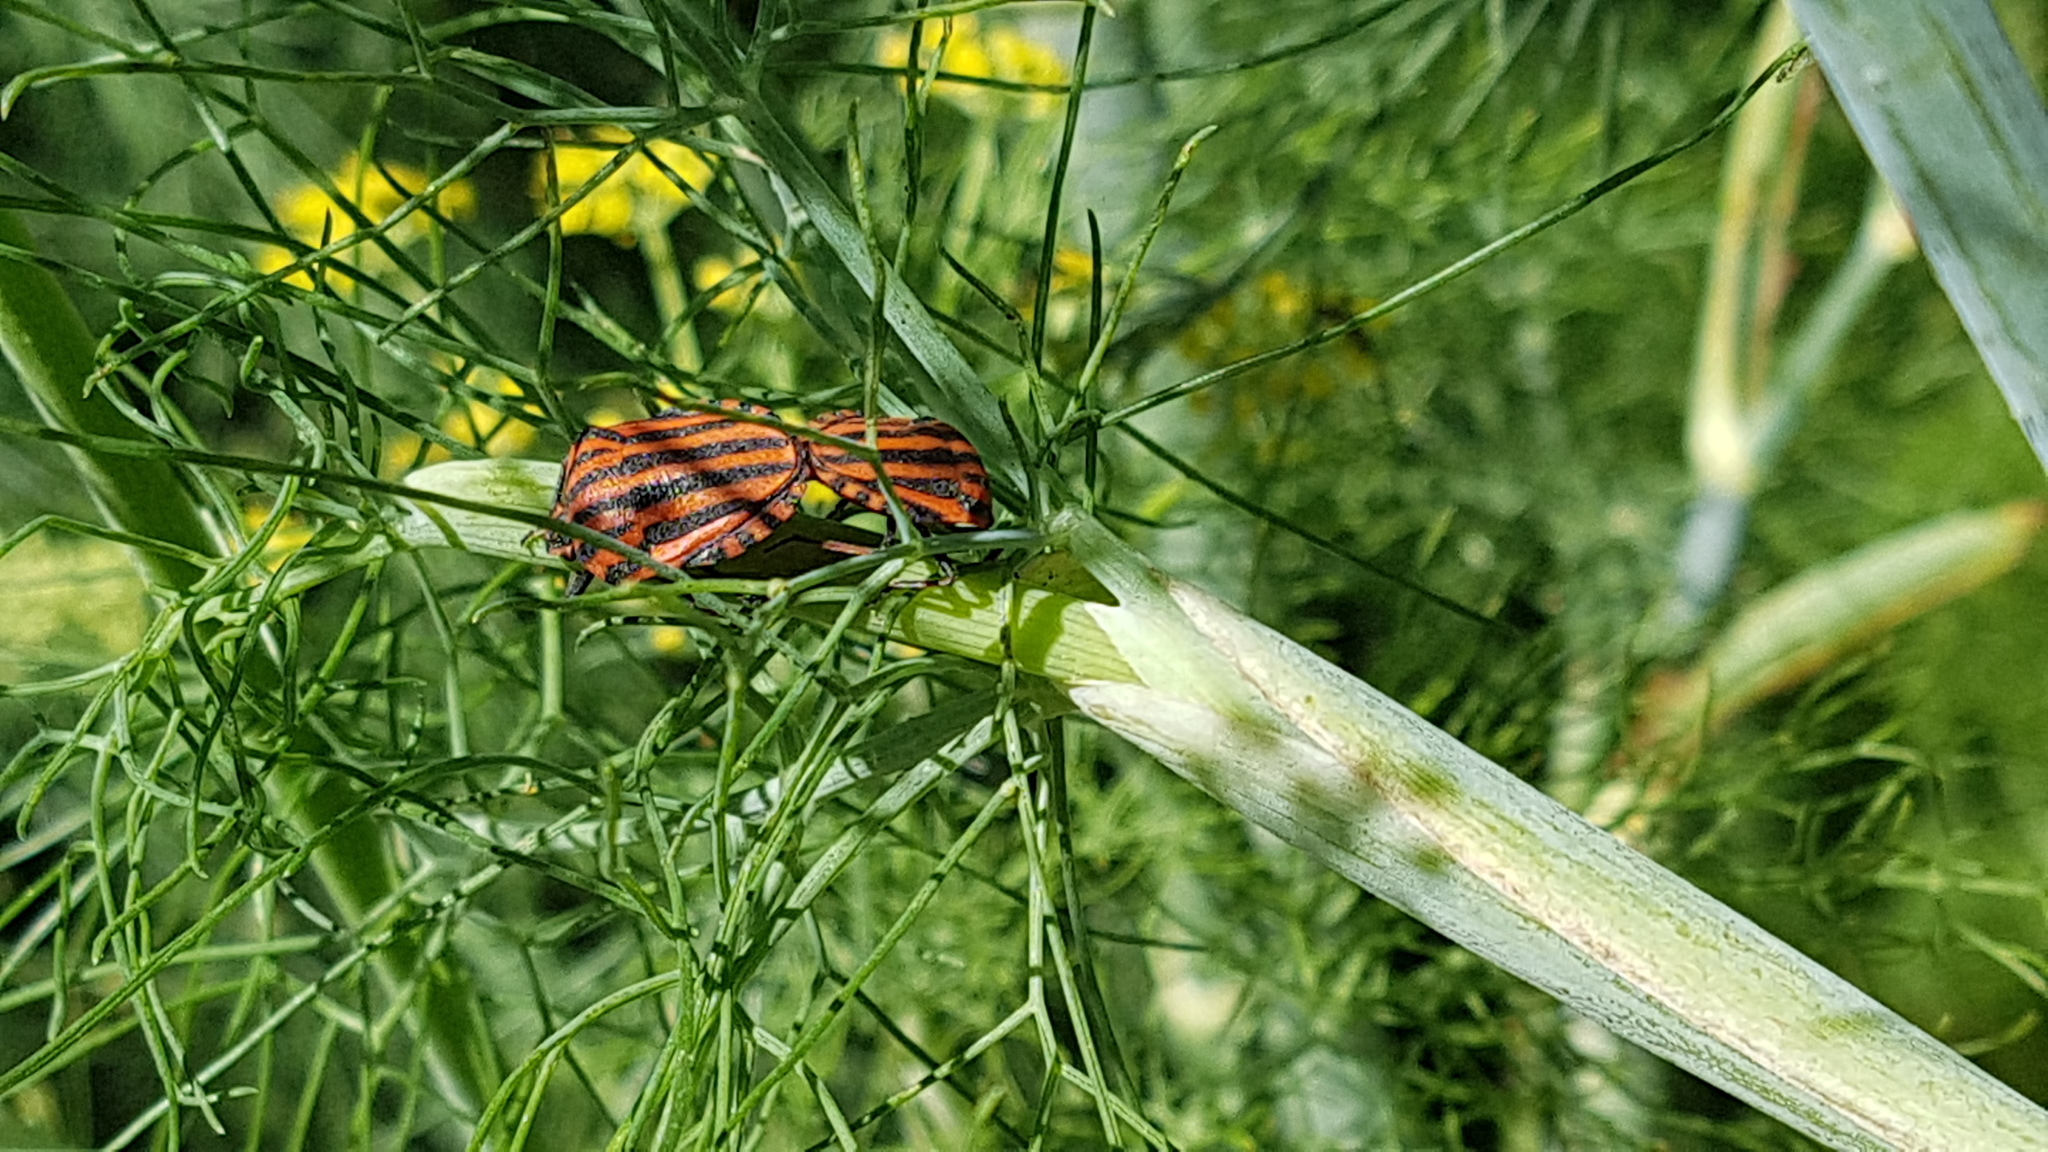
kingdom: Animalia
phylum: Arthropoda
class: Insecta
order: Hemiptera
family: Pentatomidae
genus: Graphosoma
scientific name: Graphosoma italicum
